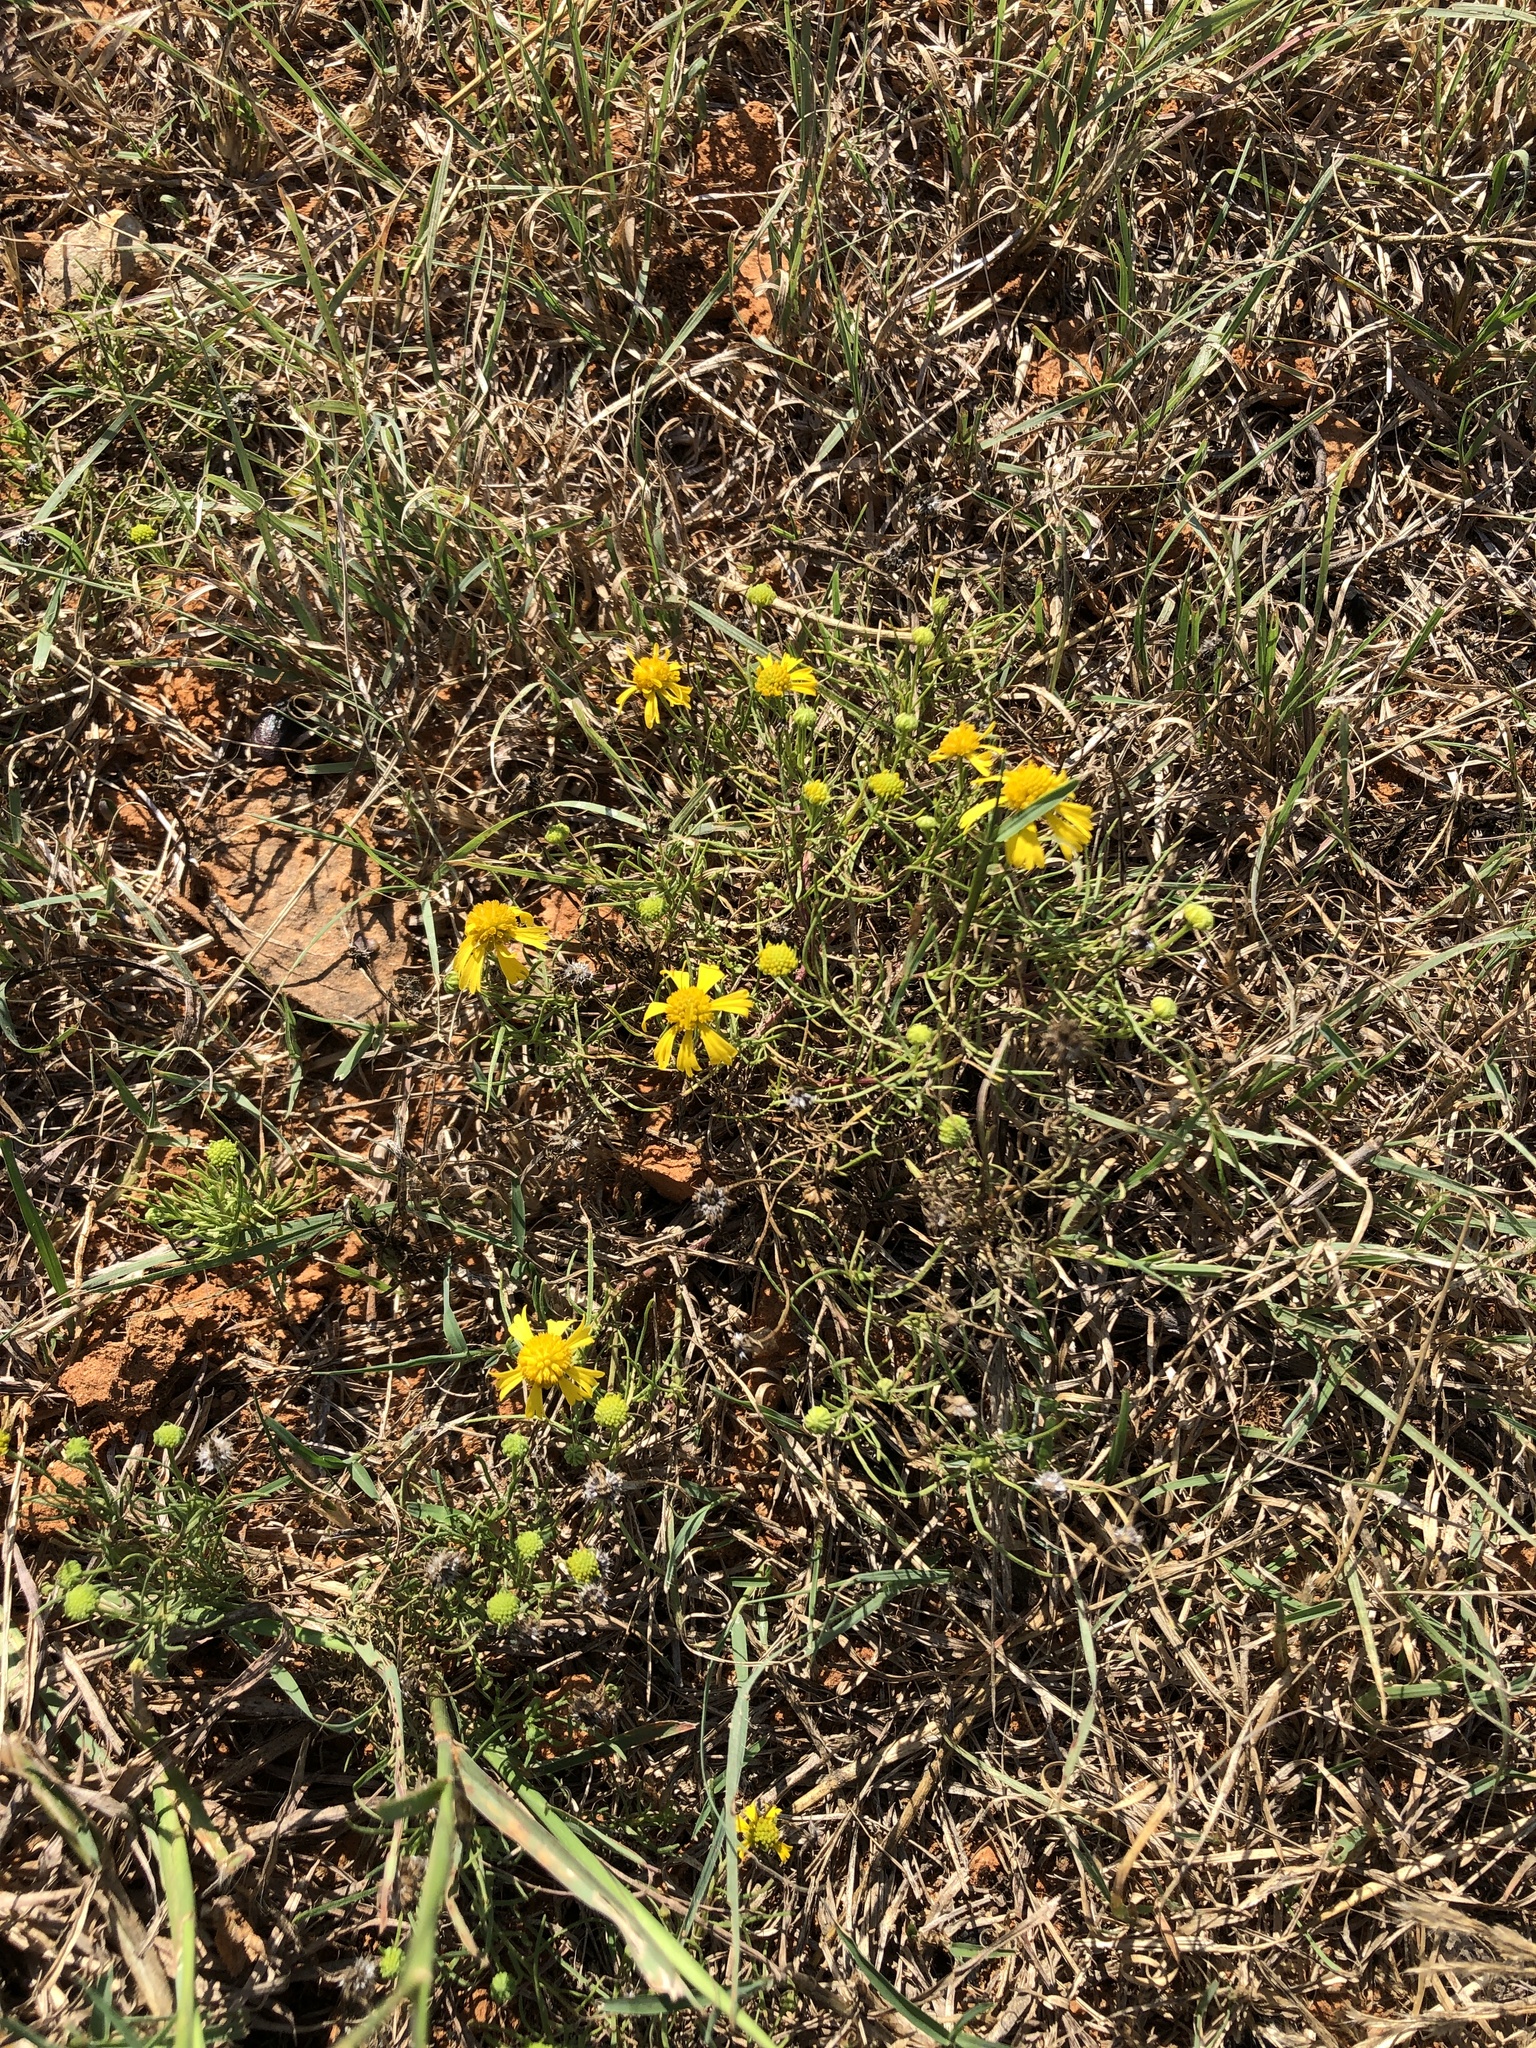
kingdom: Plantae
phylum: Tracheophyta
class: Magnoliopsida
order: Asterales
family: Asteraceae
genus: Helenium
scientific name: Helenium amarum
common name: Bitter sneezeweed
